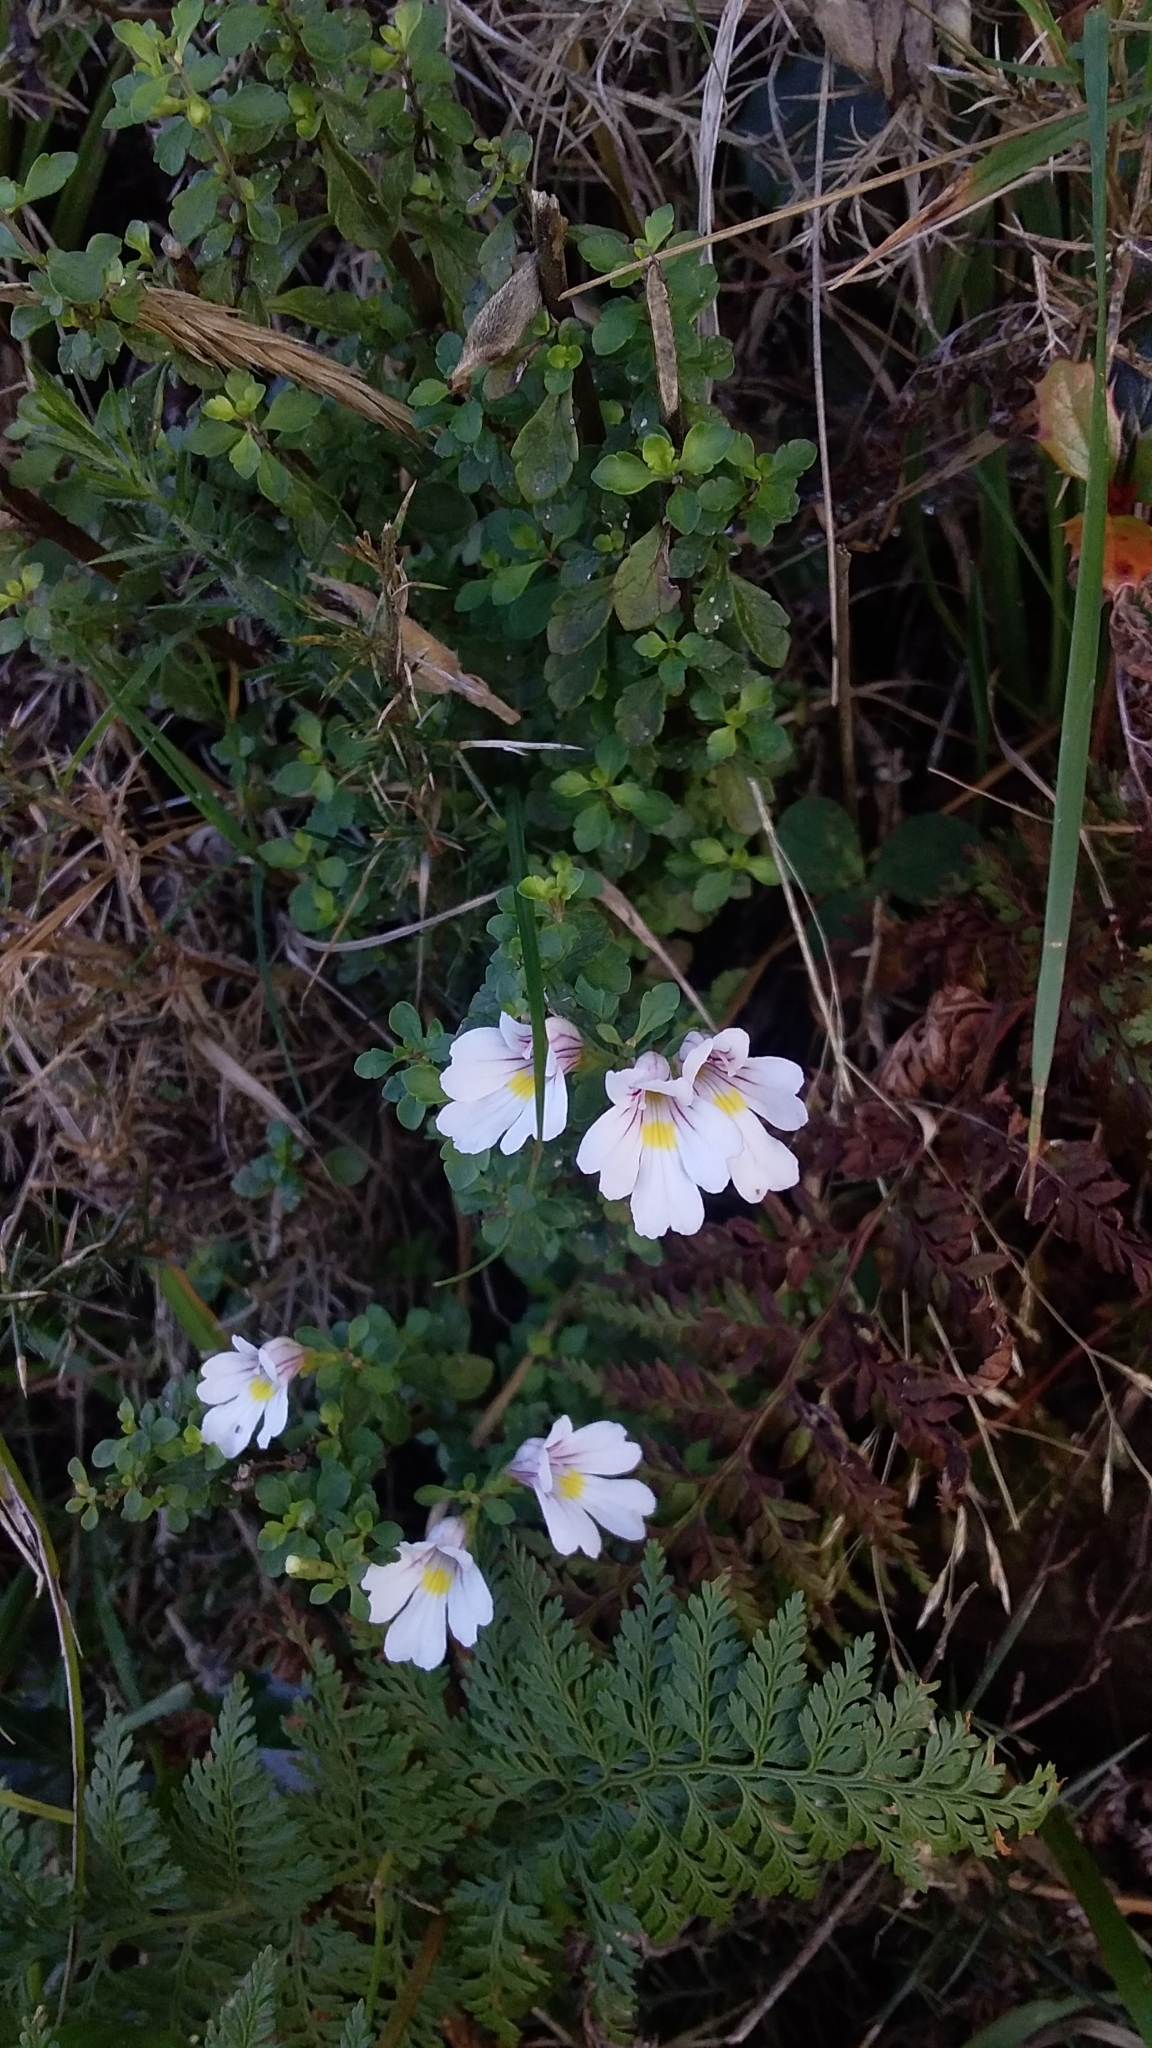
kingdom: Plantae
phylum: Tracheophyta
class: Magnoliopsida
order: Lamiales
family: Orobanchaceae
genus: Euphrasia
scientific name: Euphrasia cuneata
